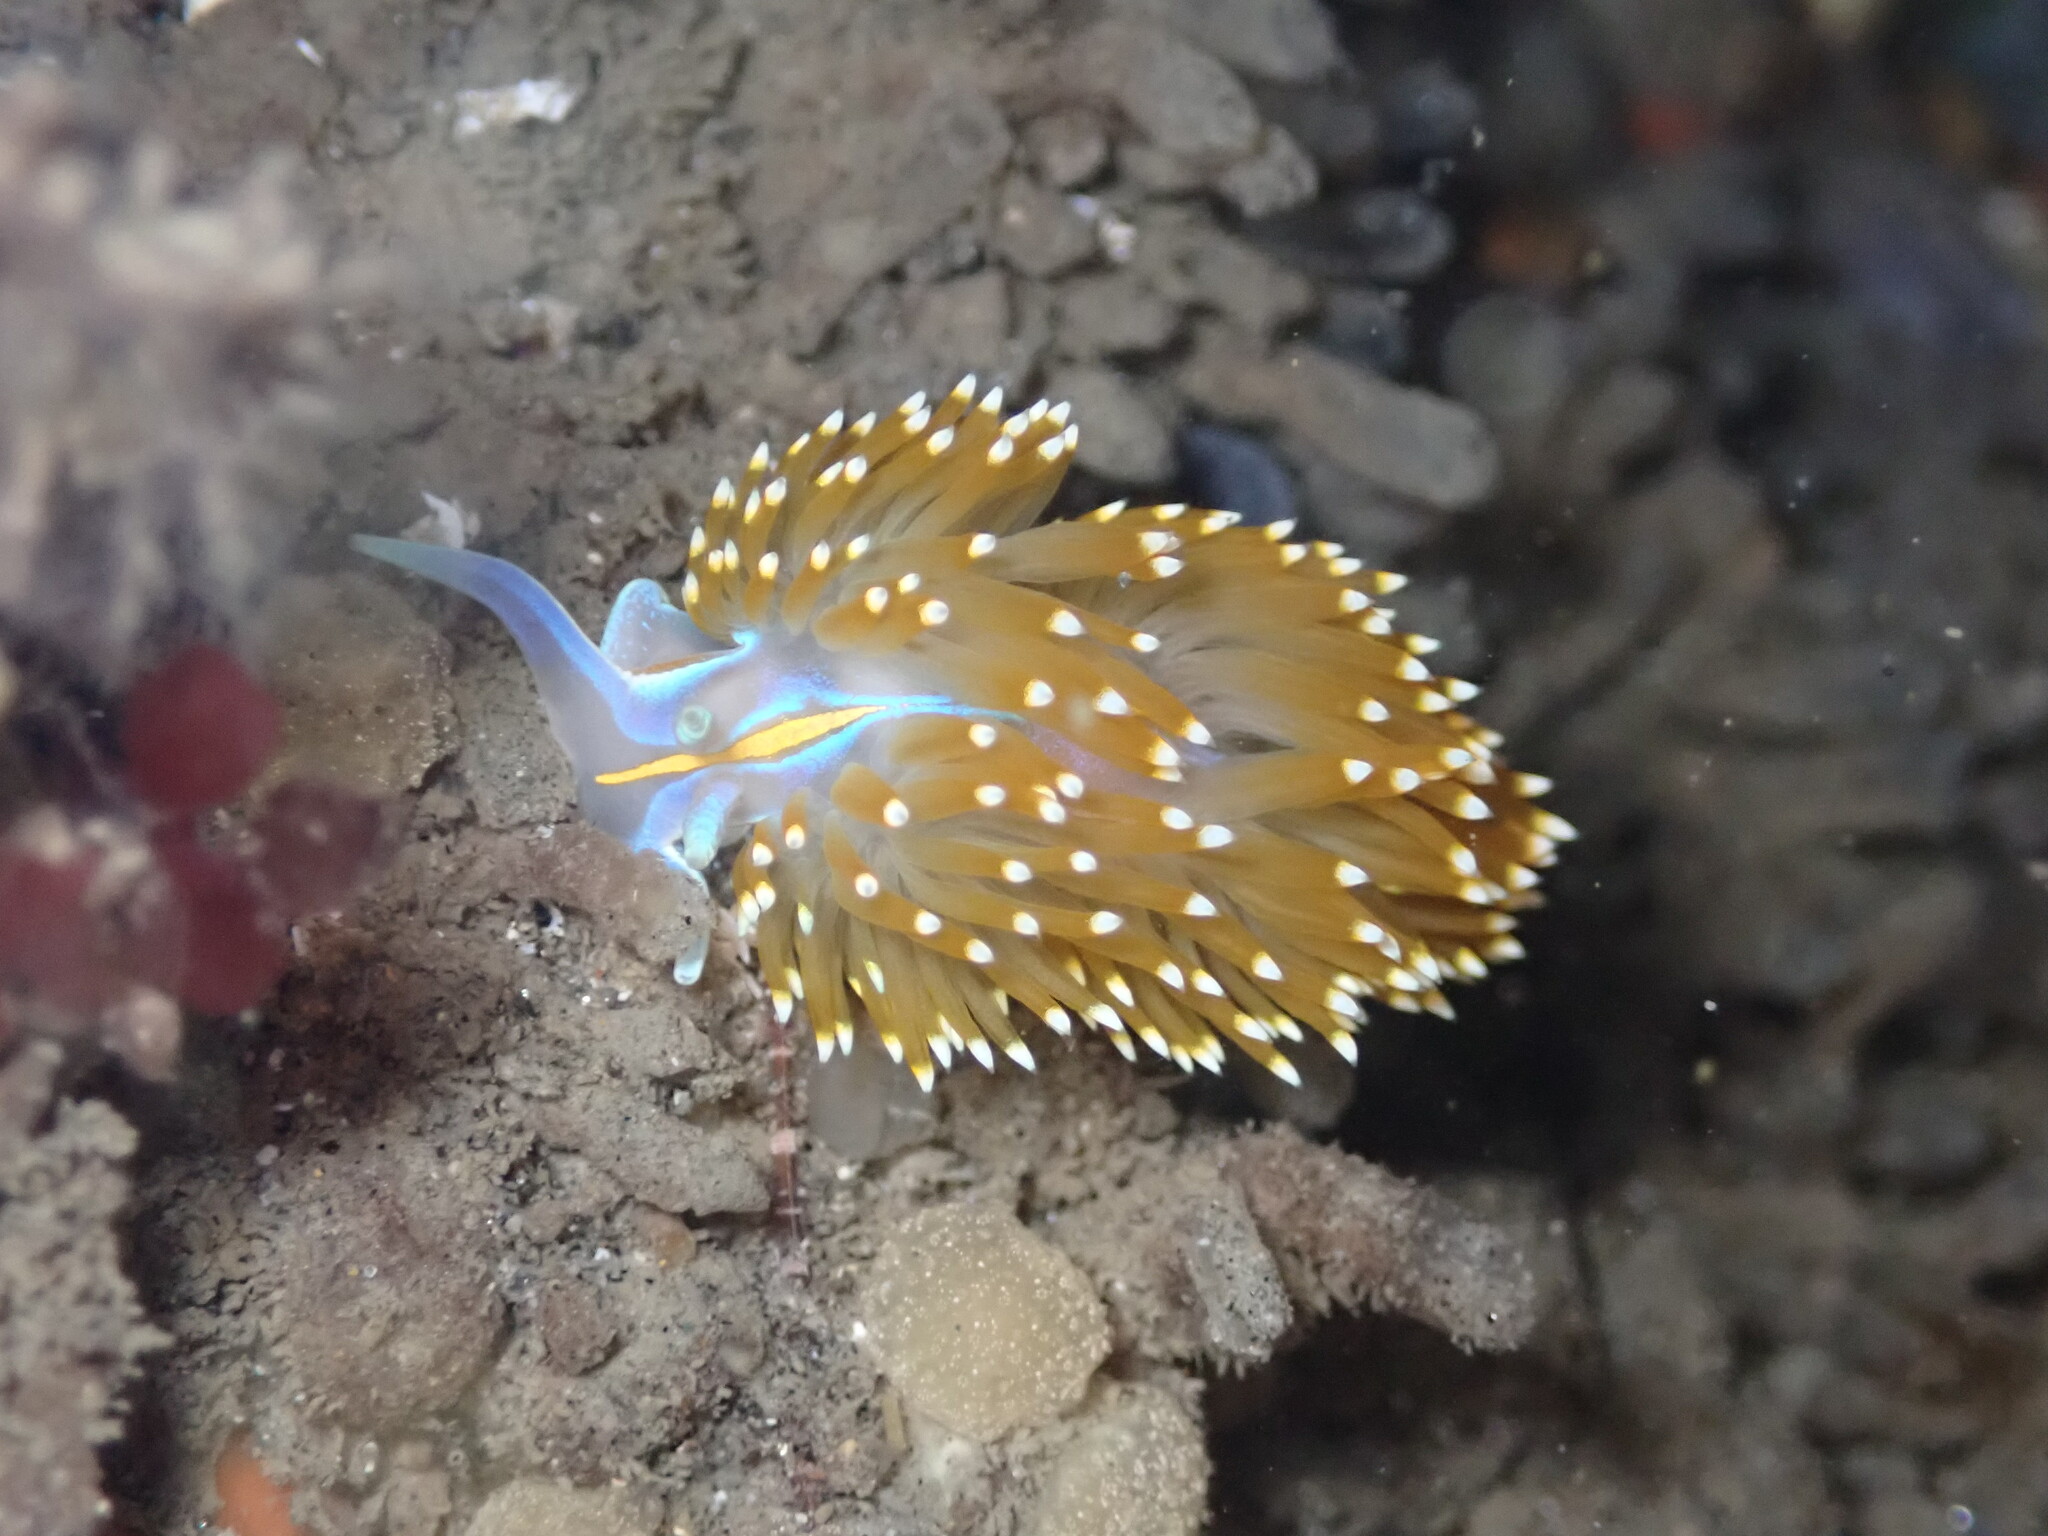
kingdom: Animalia
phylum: Mollusca
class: Gastropoda
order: Nudibranchia
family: Myrrhinidae
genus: Hermissenda
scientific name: Hermissenda opalescens
